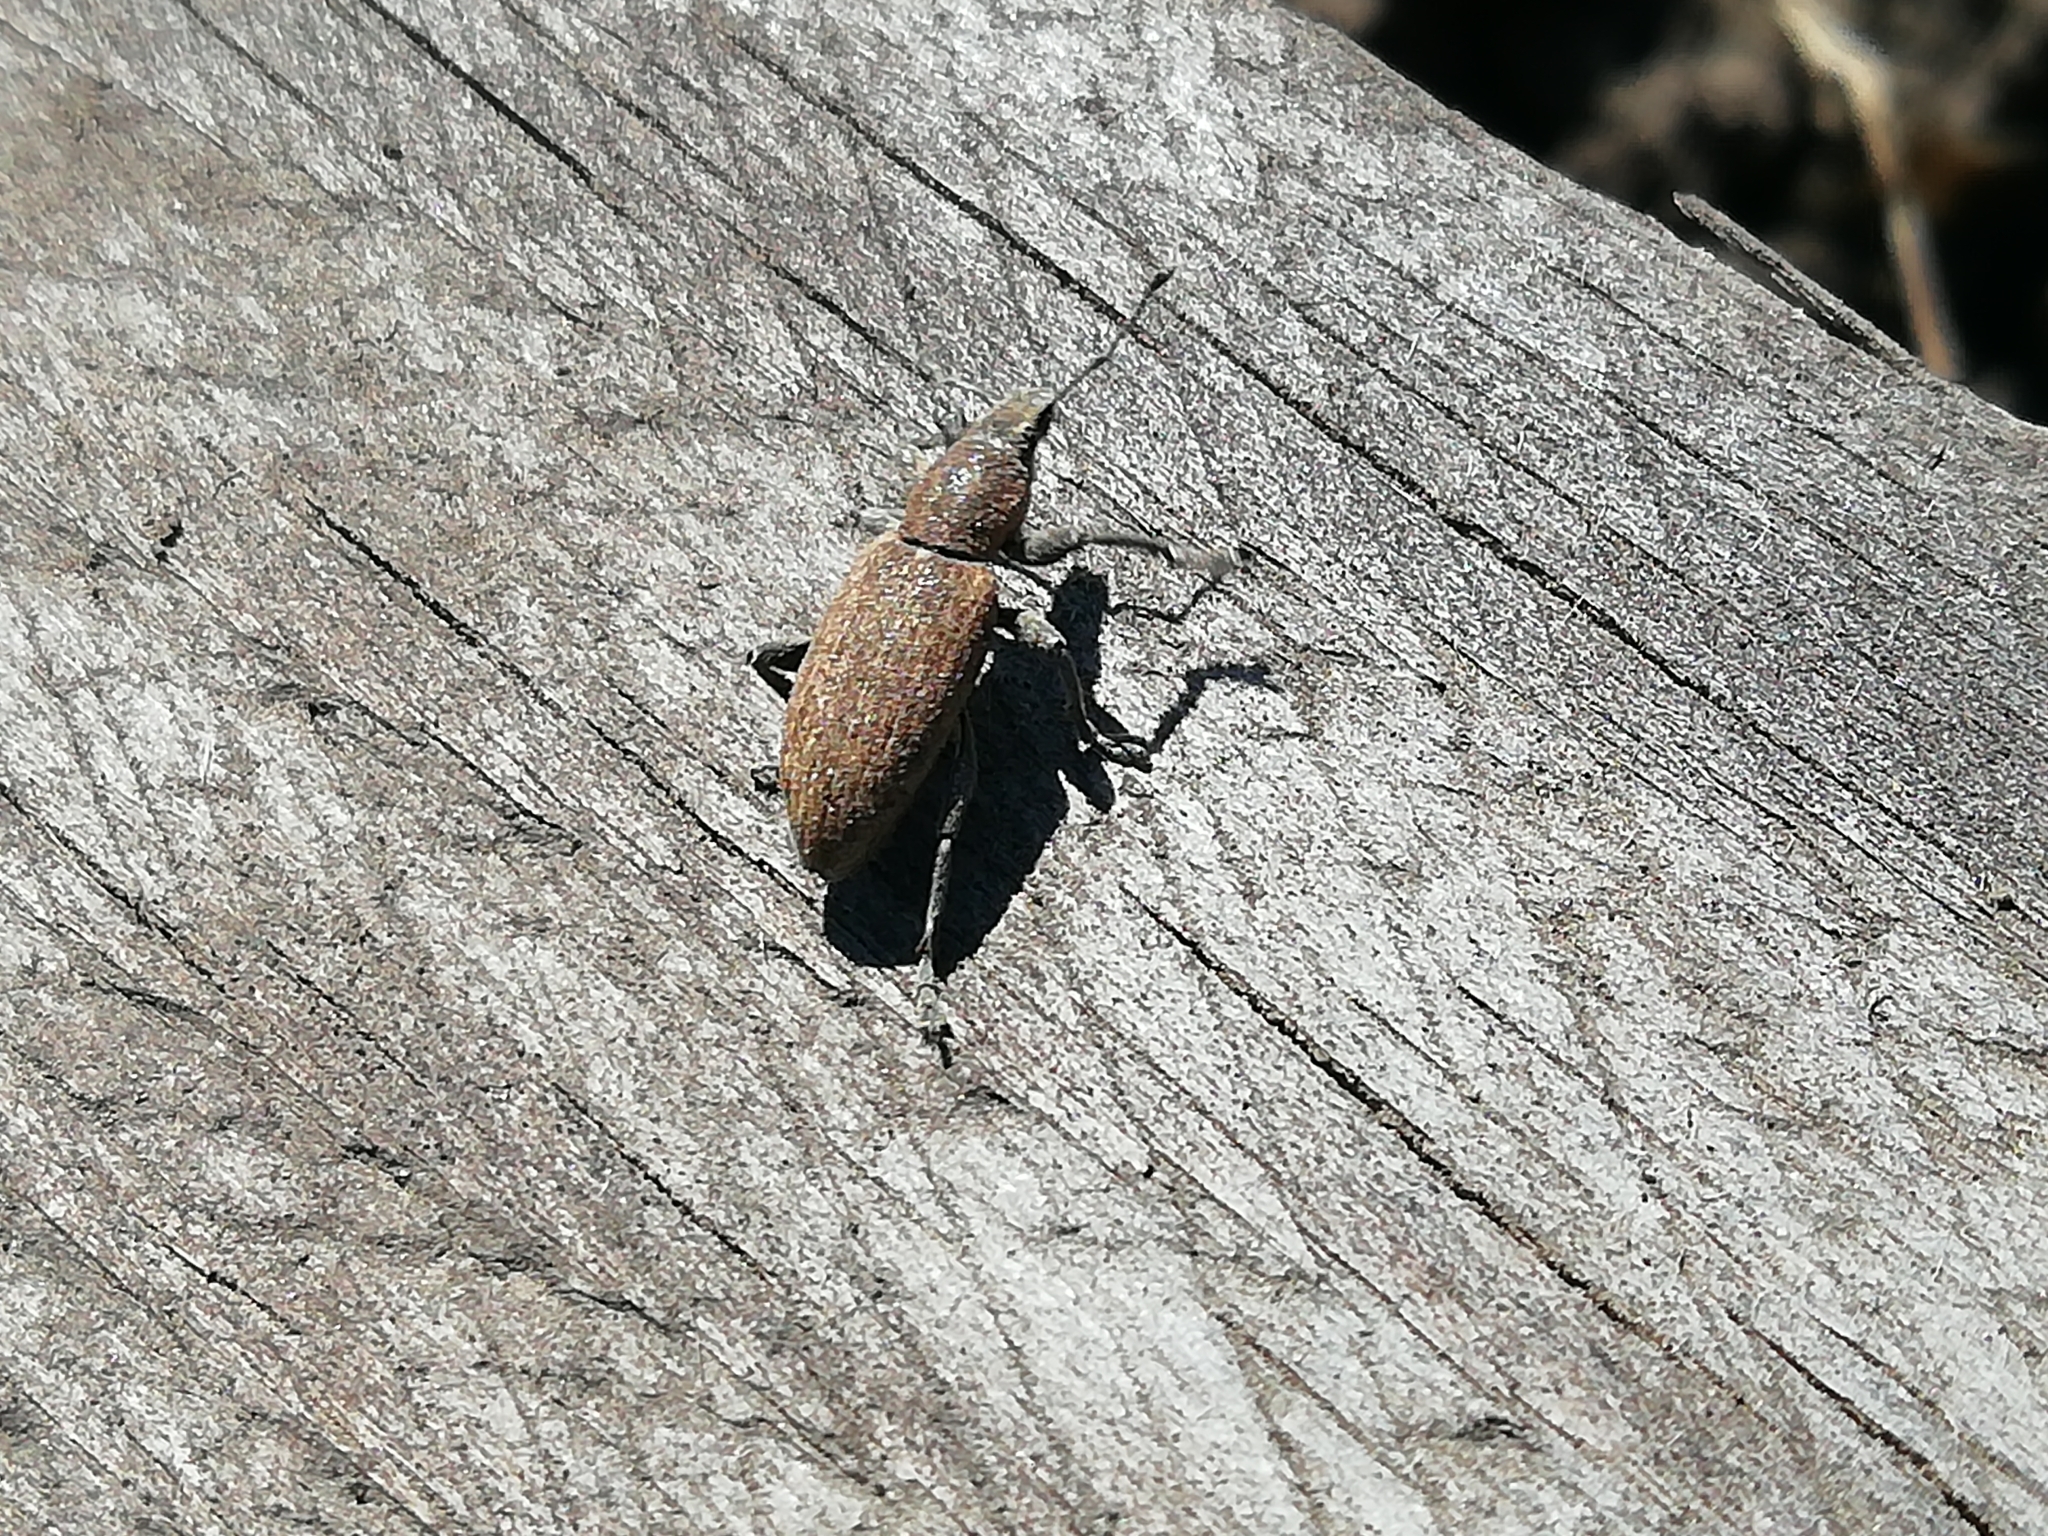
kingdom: Animalia
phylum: Arthropoda
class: Insecta
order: Coleoptera
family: Curculionidae
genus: Tanymecus
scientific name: Tanymecus palliatus
